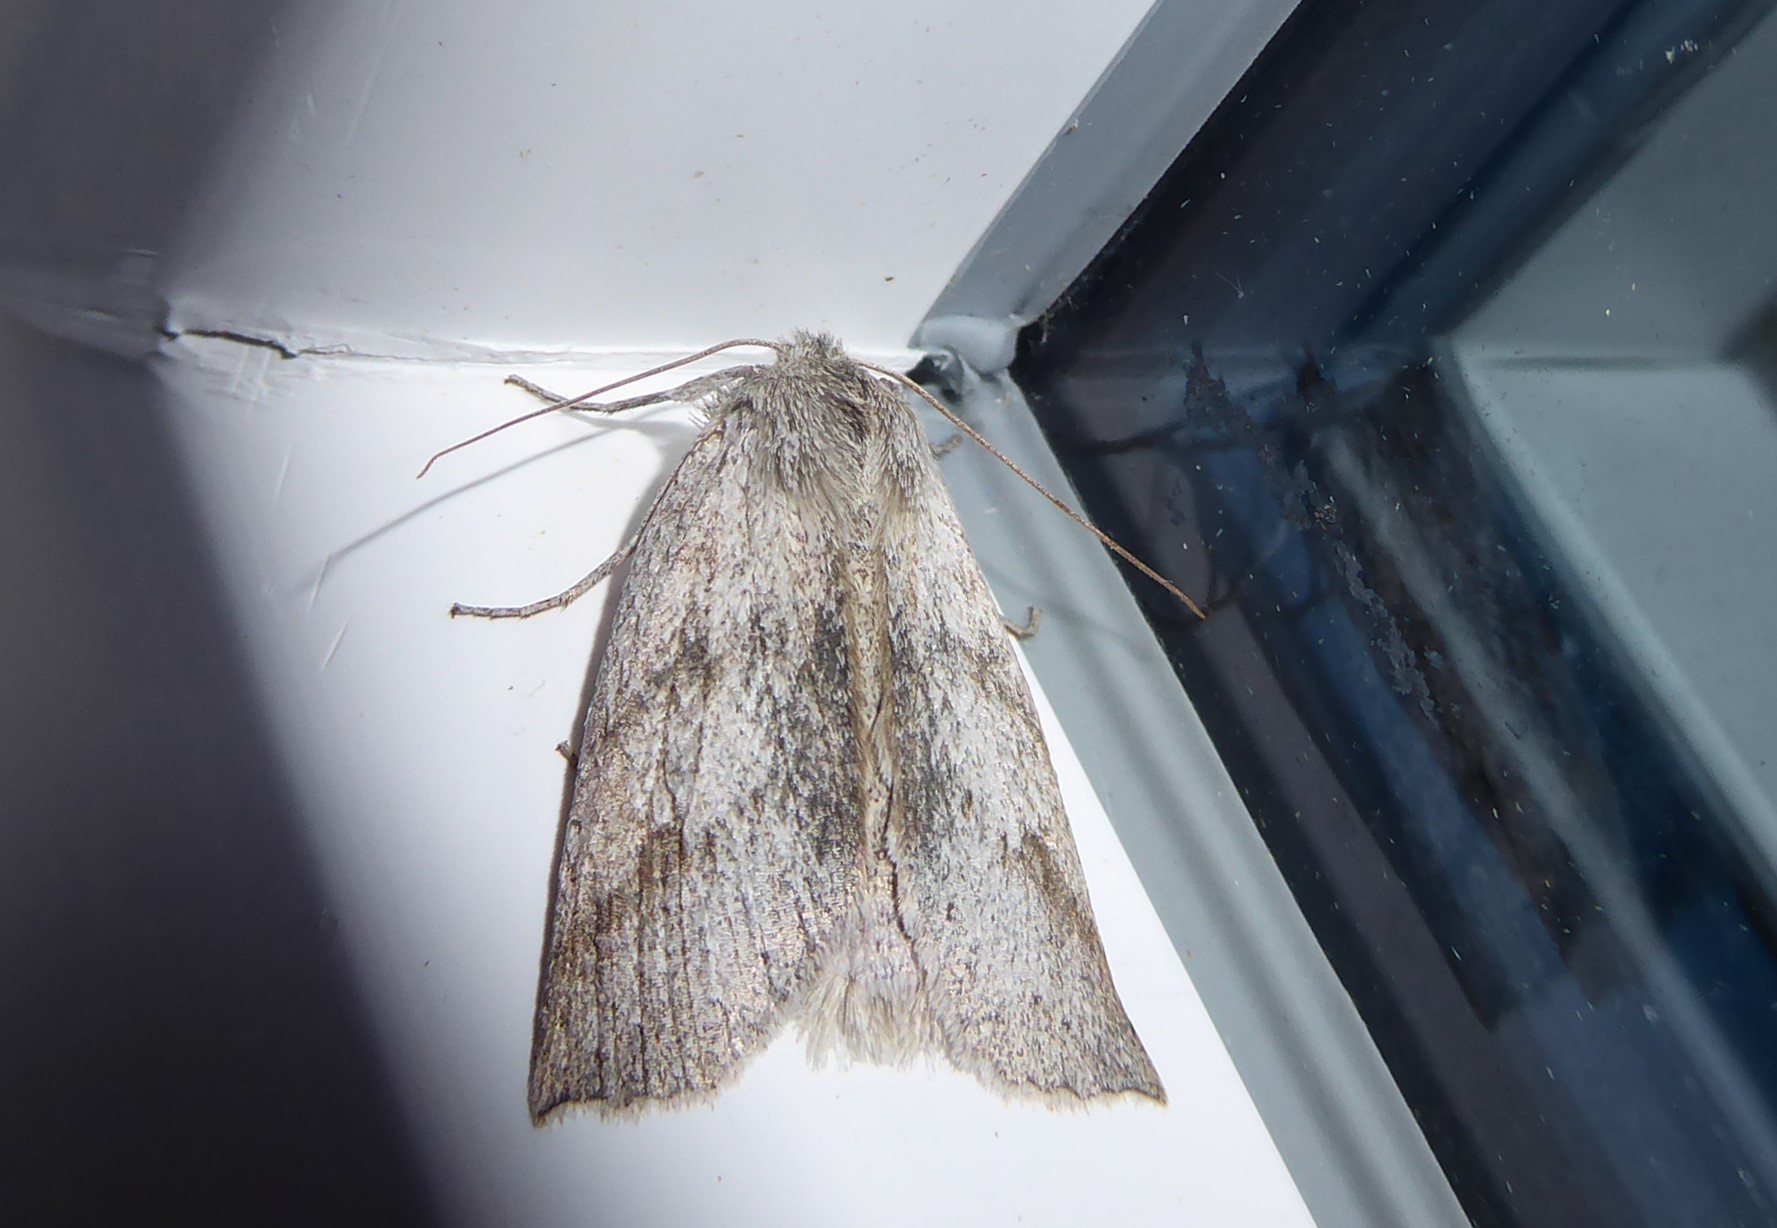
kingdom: Animalia
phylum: Arthropoda
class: Insecta
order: Lepidoptera
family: Geometridae
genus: Declana
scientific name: Declana leptomera
